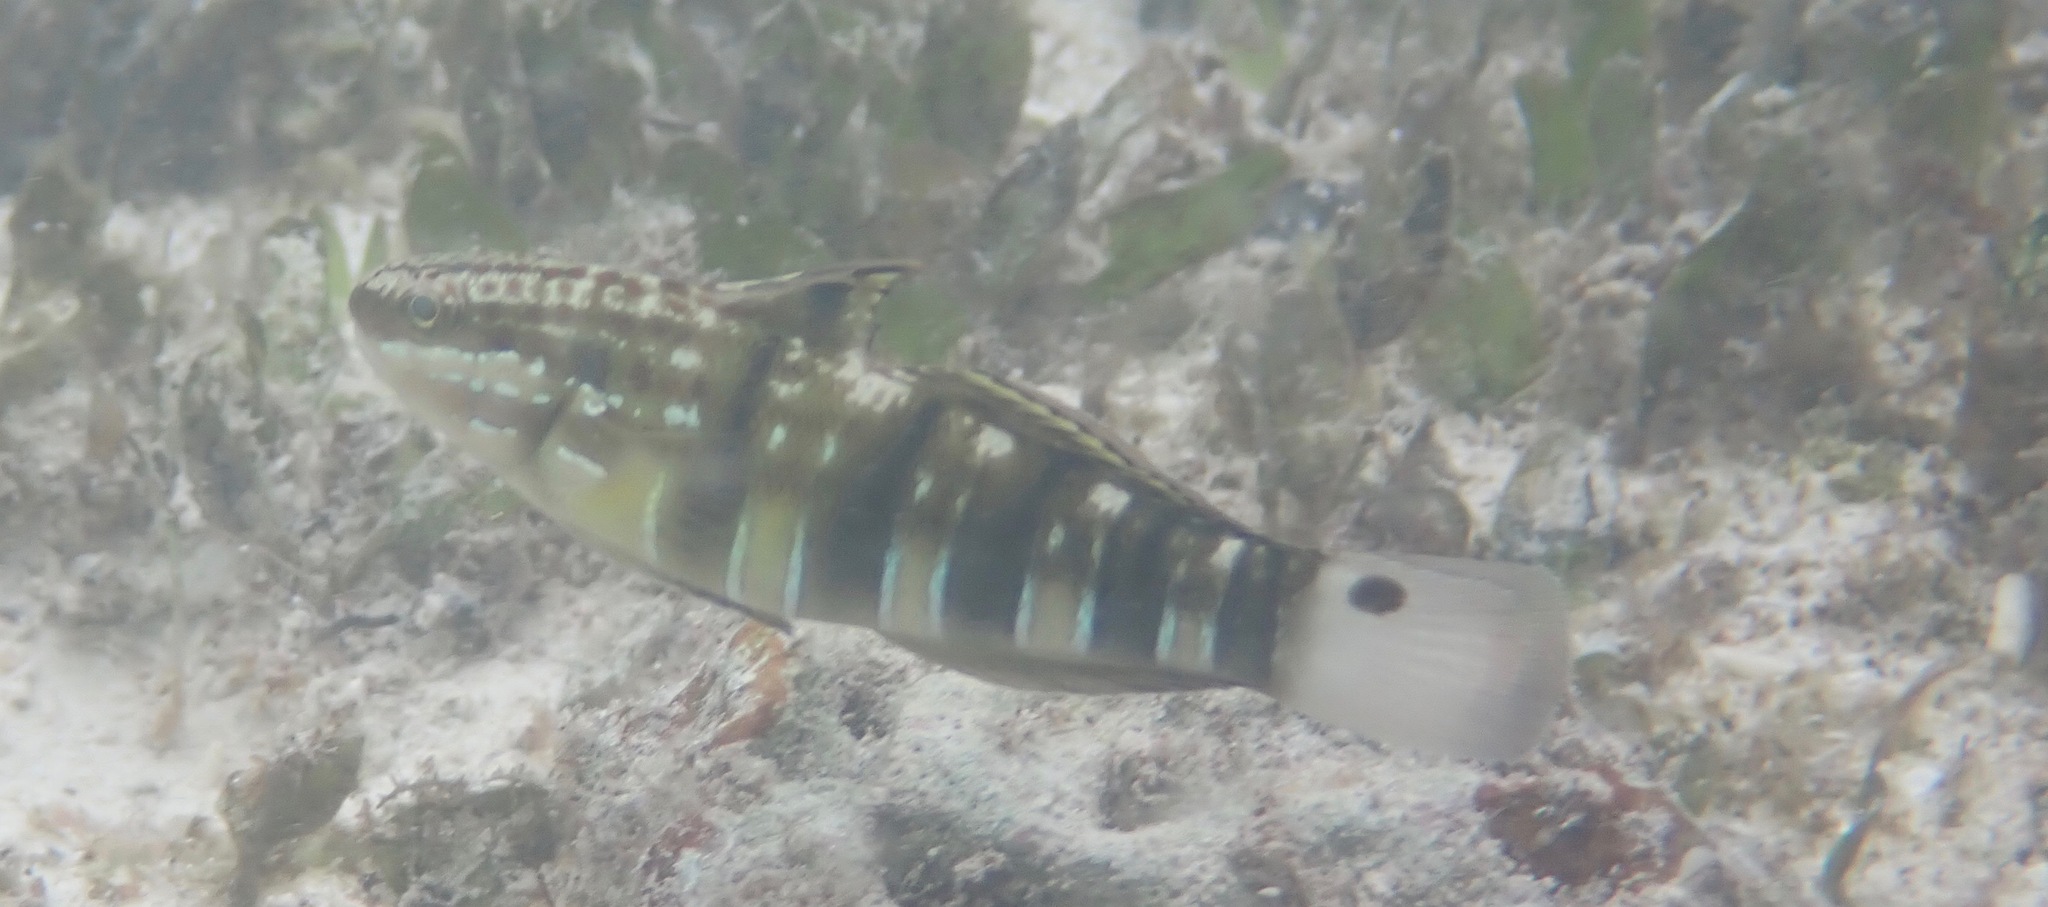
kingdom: Animalia
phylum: Chordata
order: Perciformes
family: Gobiidae
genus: Amblygobius
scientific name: Amblygobius phalaena
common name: Banded goby
